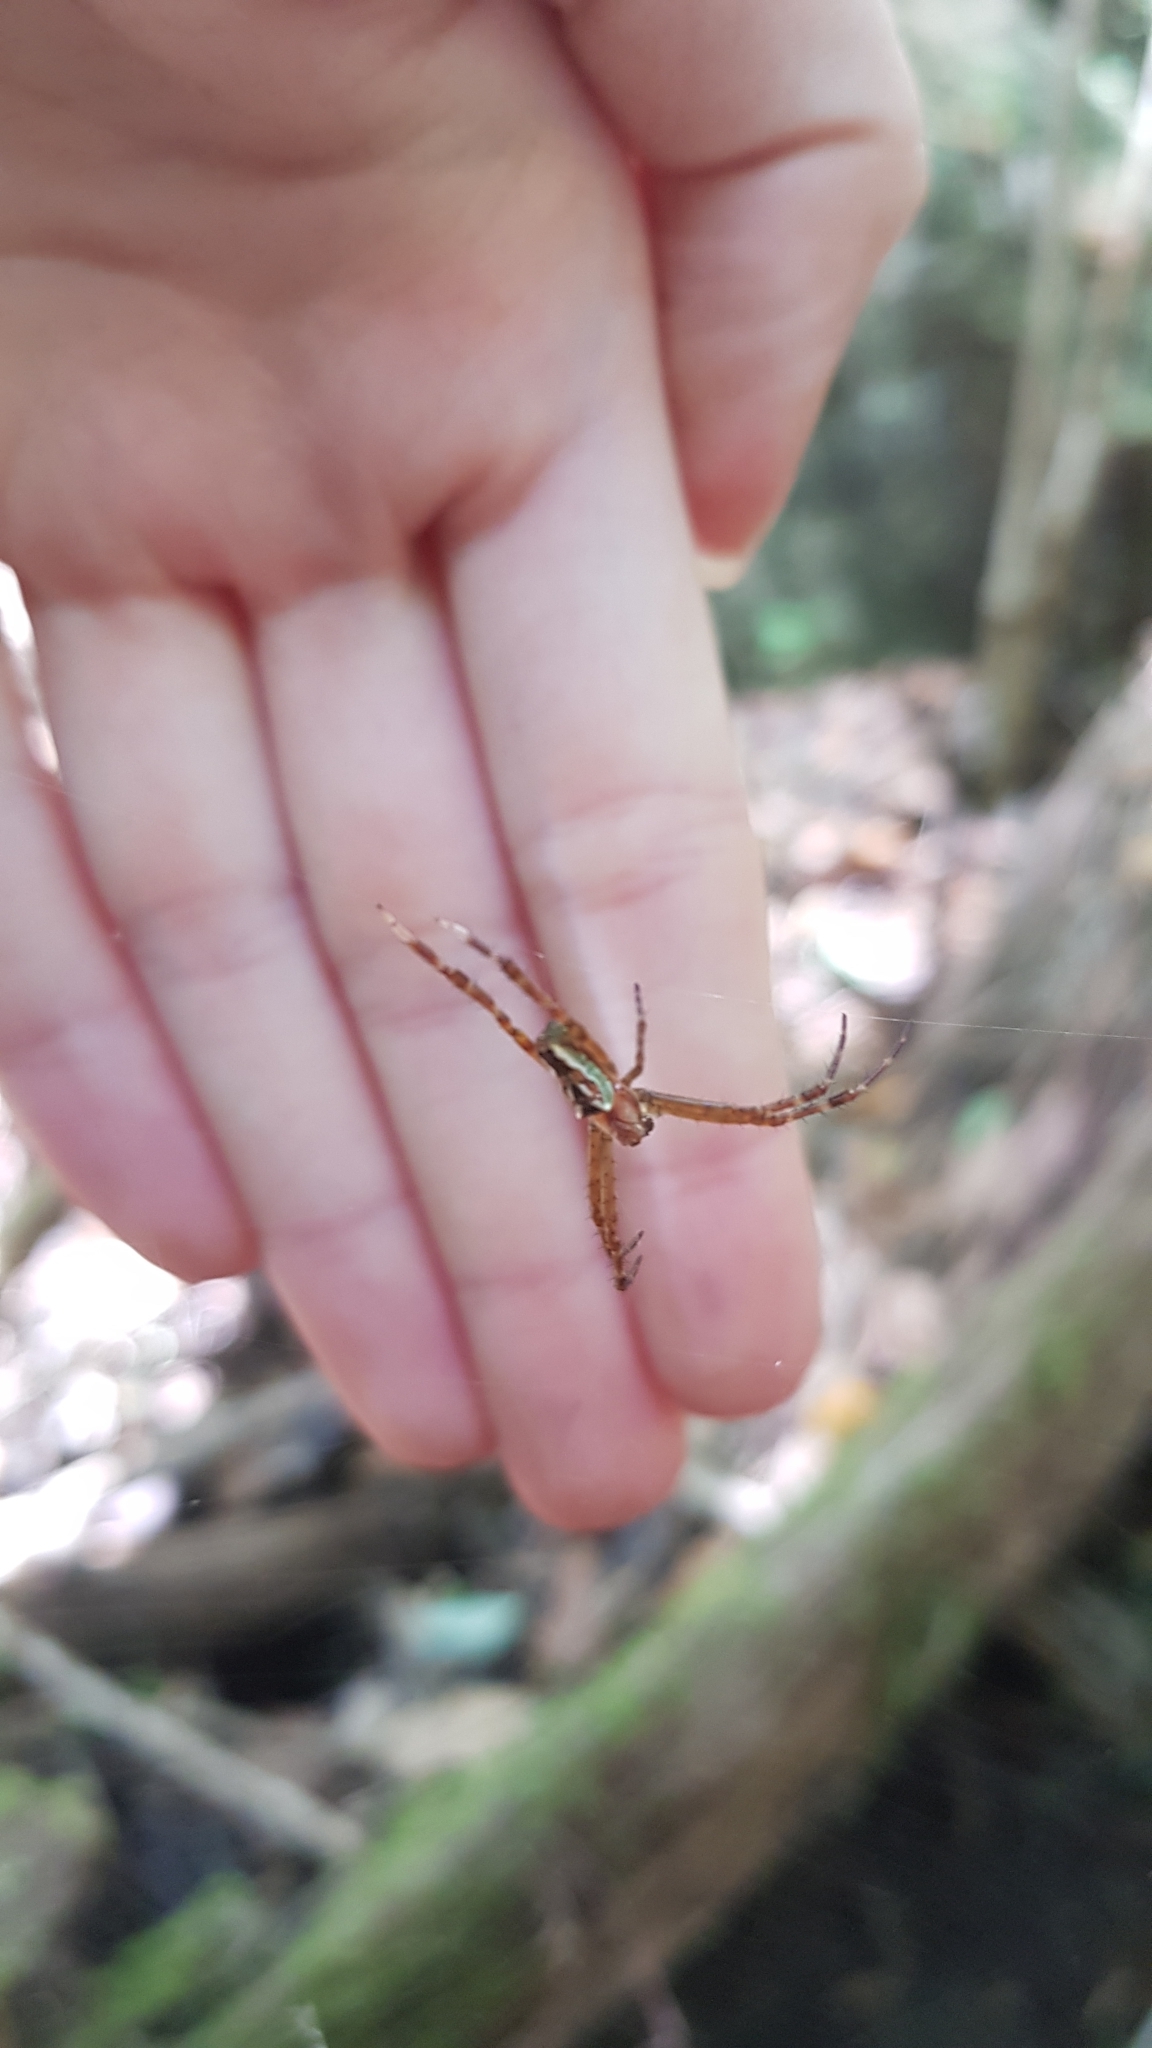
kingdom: Animalia
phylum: Arthropoda
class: Arachnida
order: Araneae
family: Araneidae
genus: Plebs
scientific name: Plebs bradleyi
